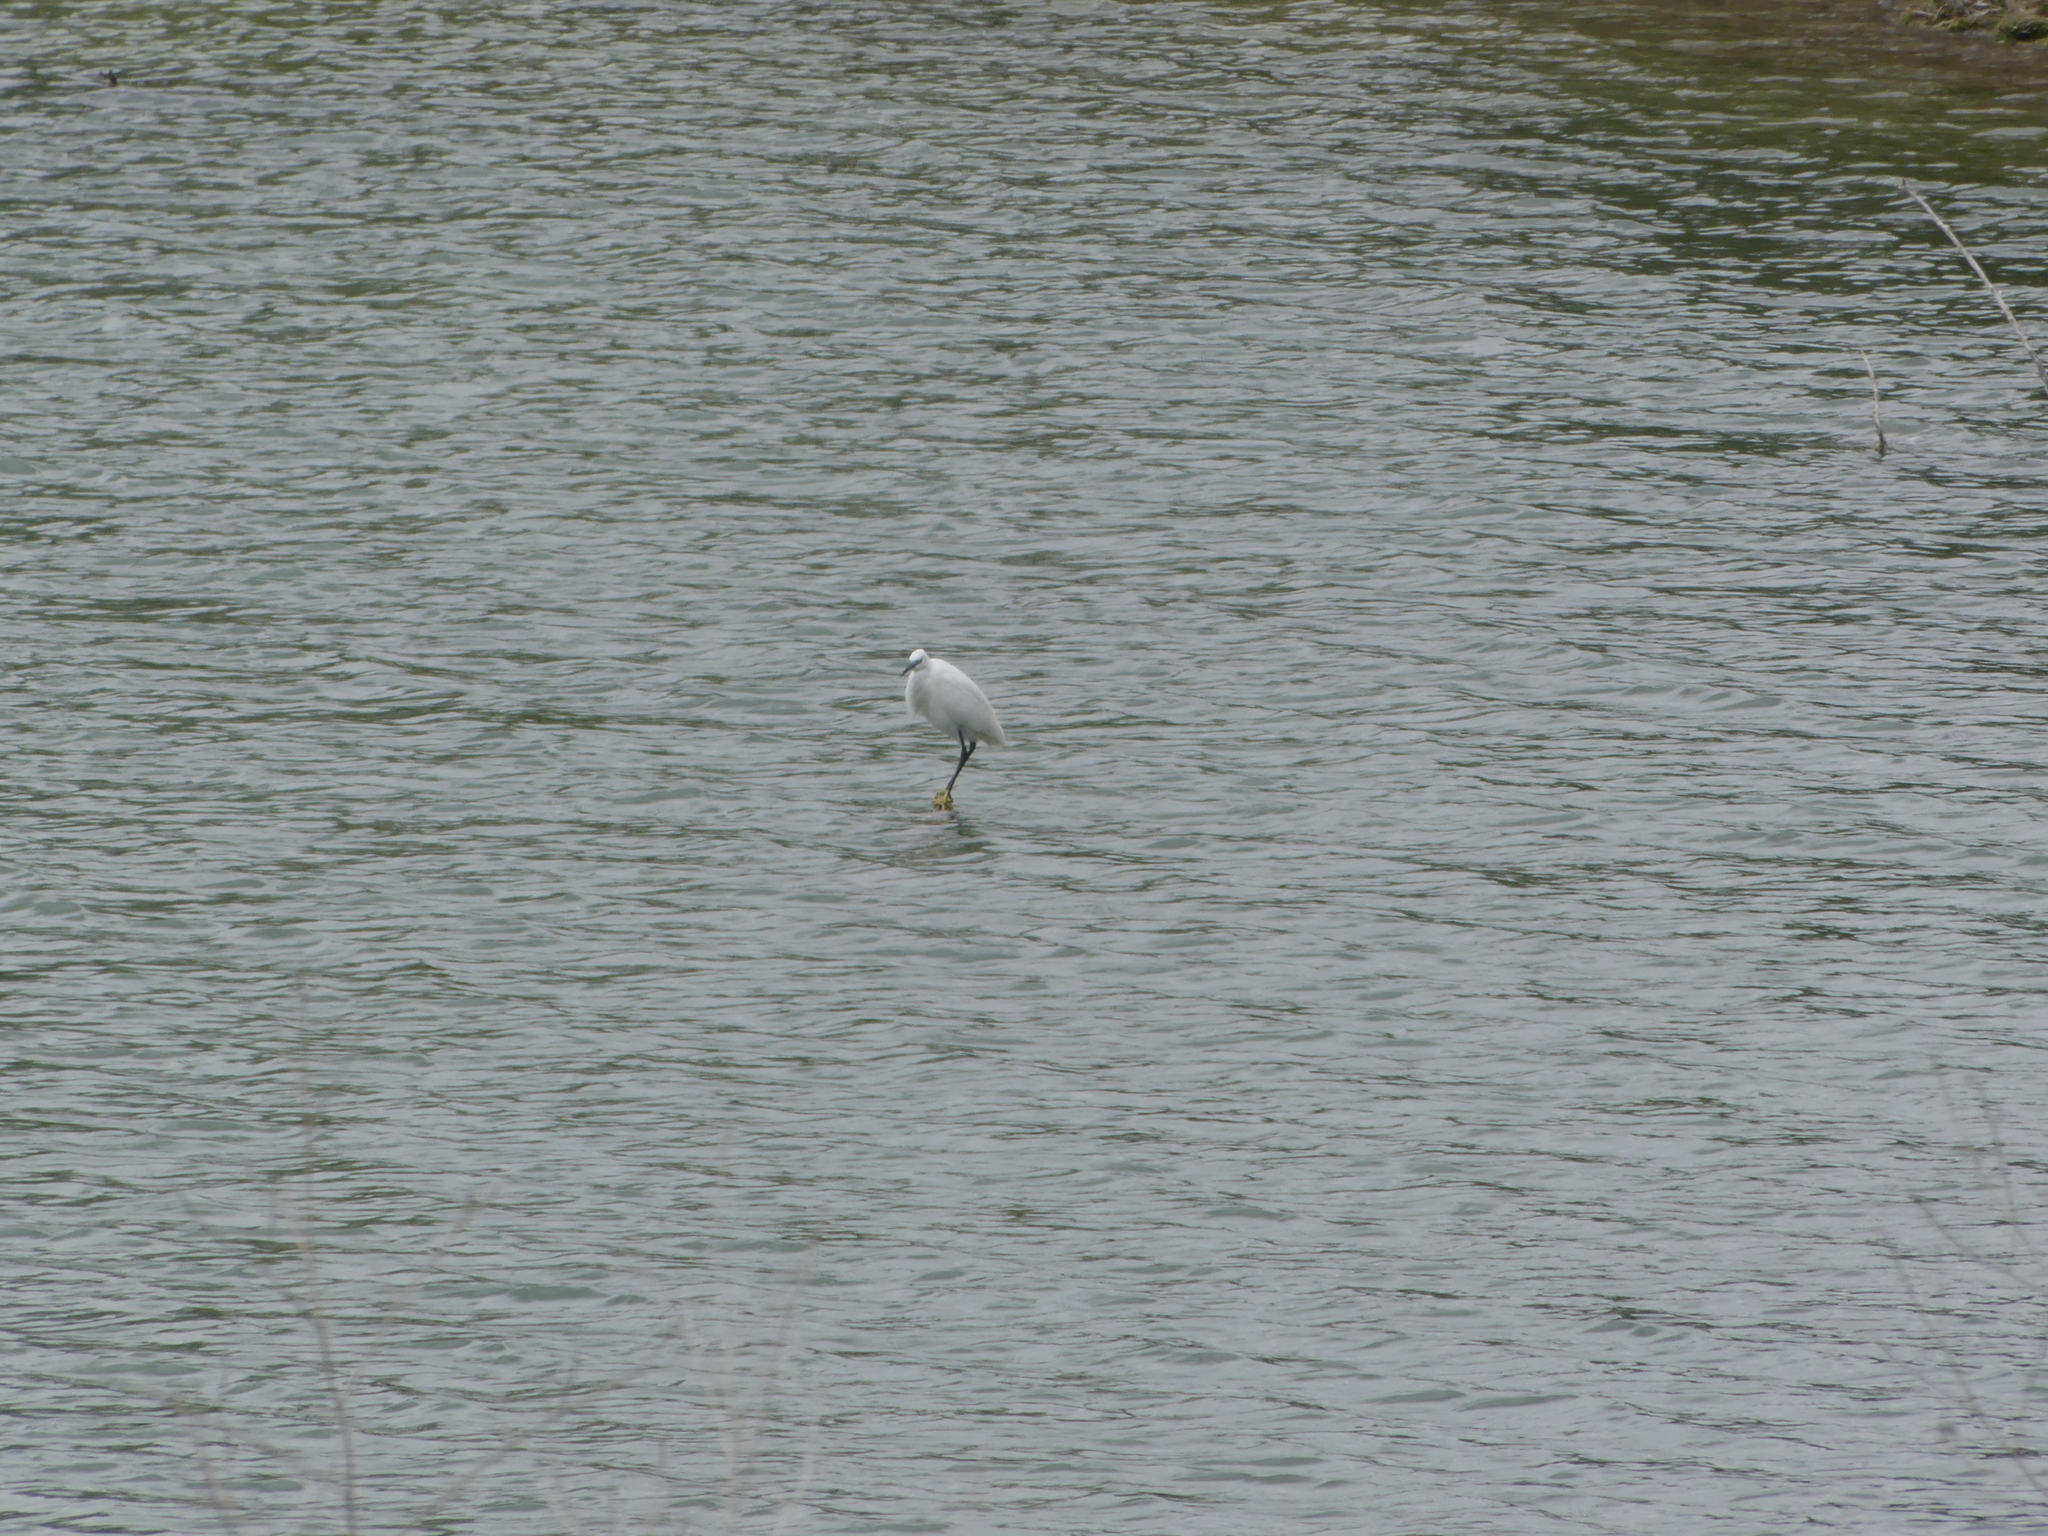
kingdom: Animalia
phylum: Chordata
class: Aves
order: Pelecaniformes
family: Ardeidae
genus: Egretta
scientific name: Egretta garzetta
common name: Little egret
